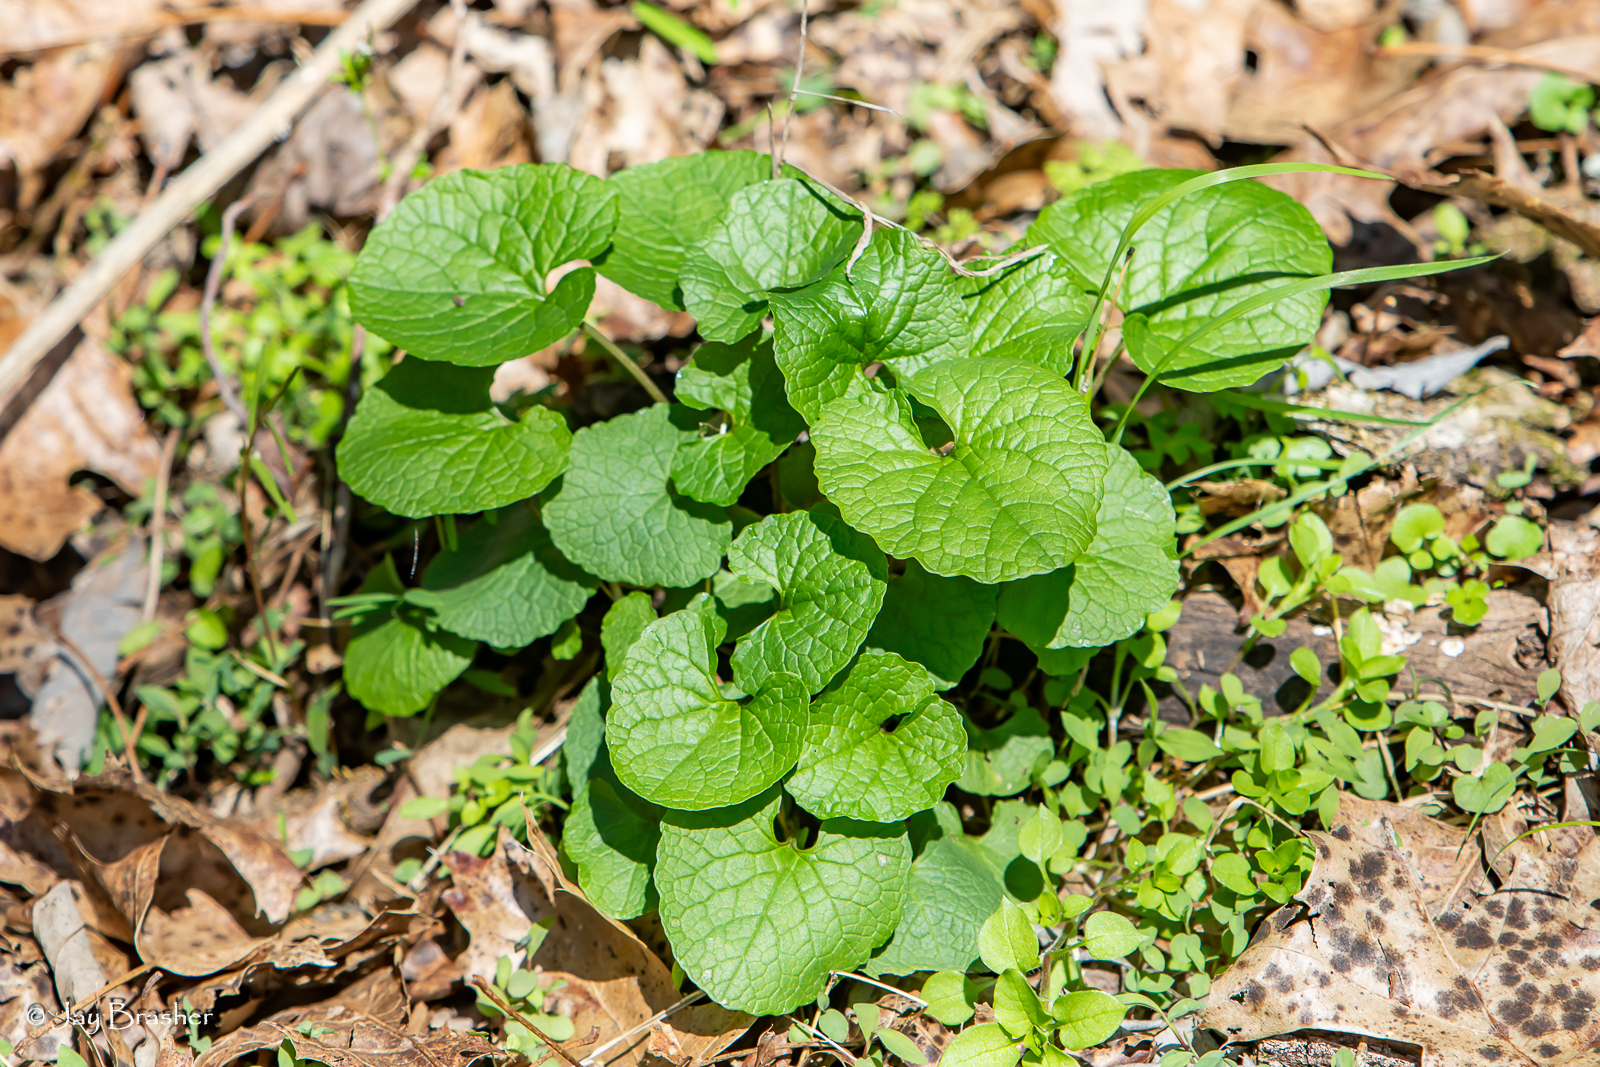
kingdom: Plantae
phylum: Tracheophyta
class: Magnoliopsida
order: Brassicales
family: Brassicaceae
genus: Alliaria
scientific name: Alliaria petiolata
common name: Garlic mustard
